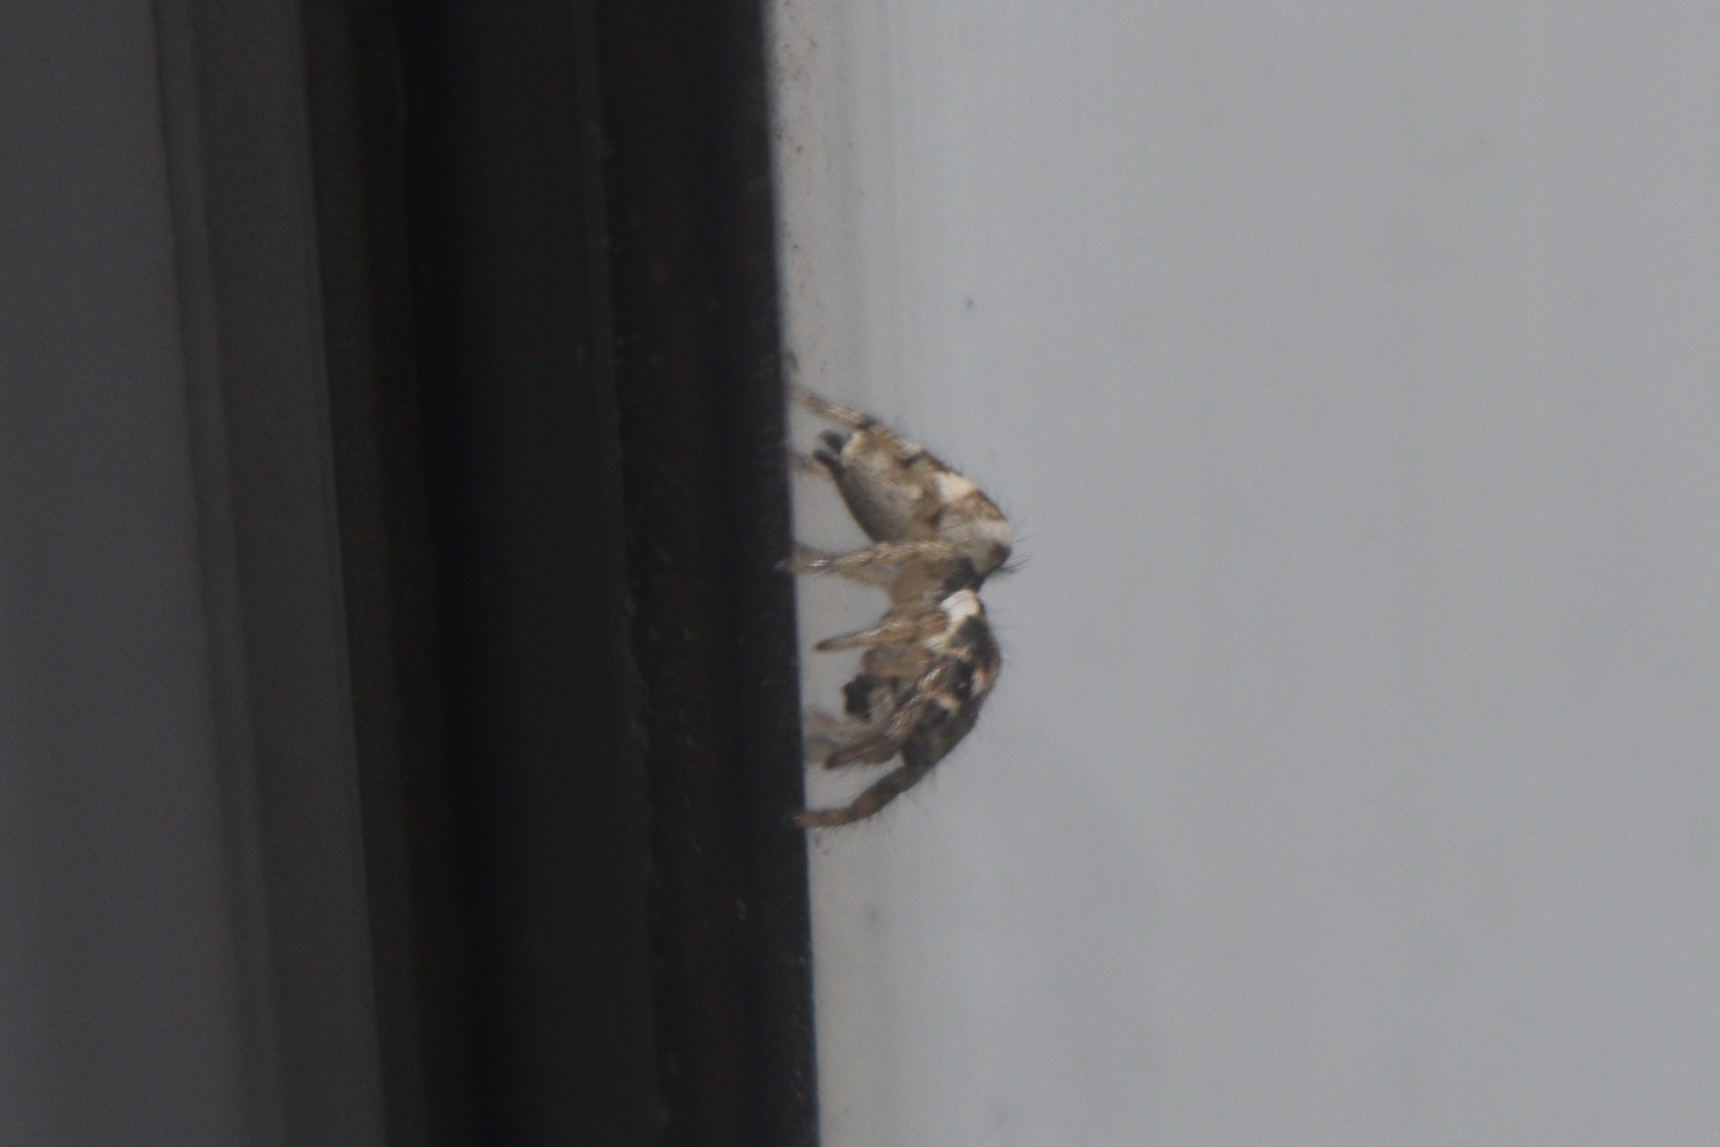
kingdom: Animalia
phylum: Arthropoda
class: Arachnida
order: Araneae
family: Salticidae
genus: Salticus
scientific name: Salticus scenicus
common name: Zebra jumper
